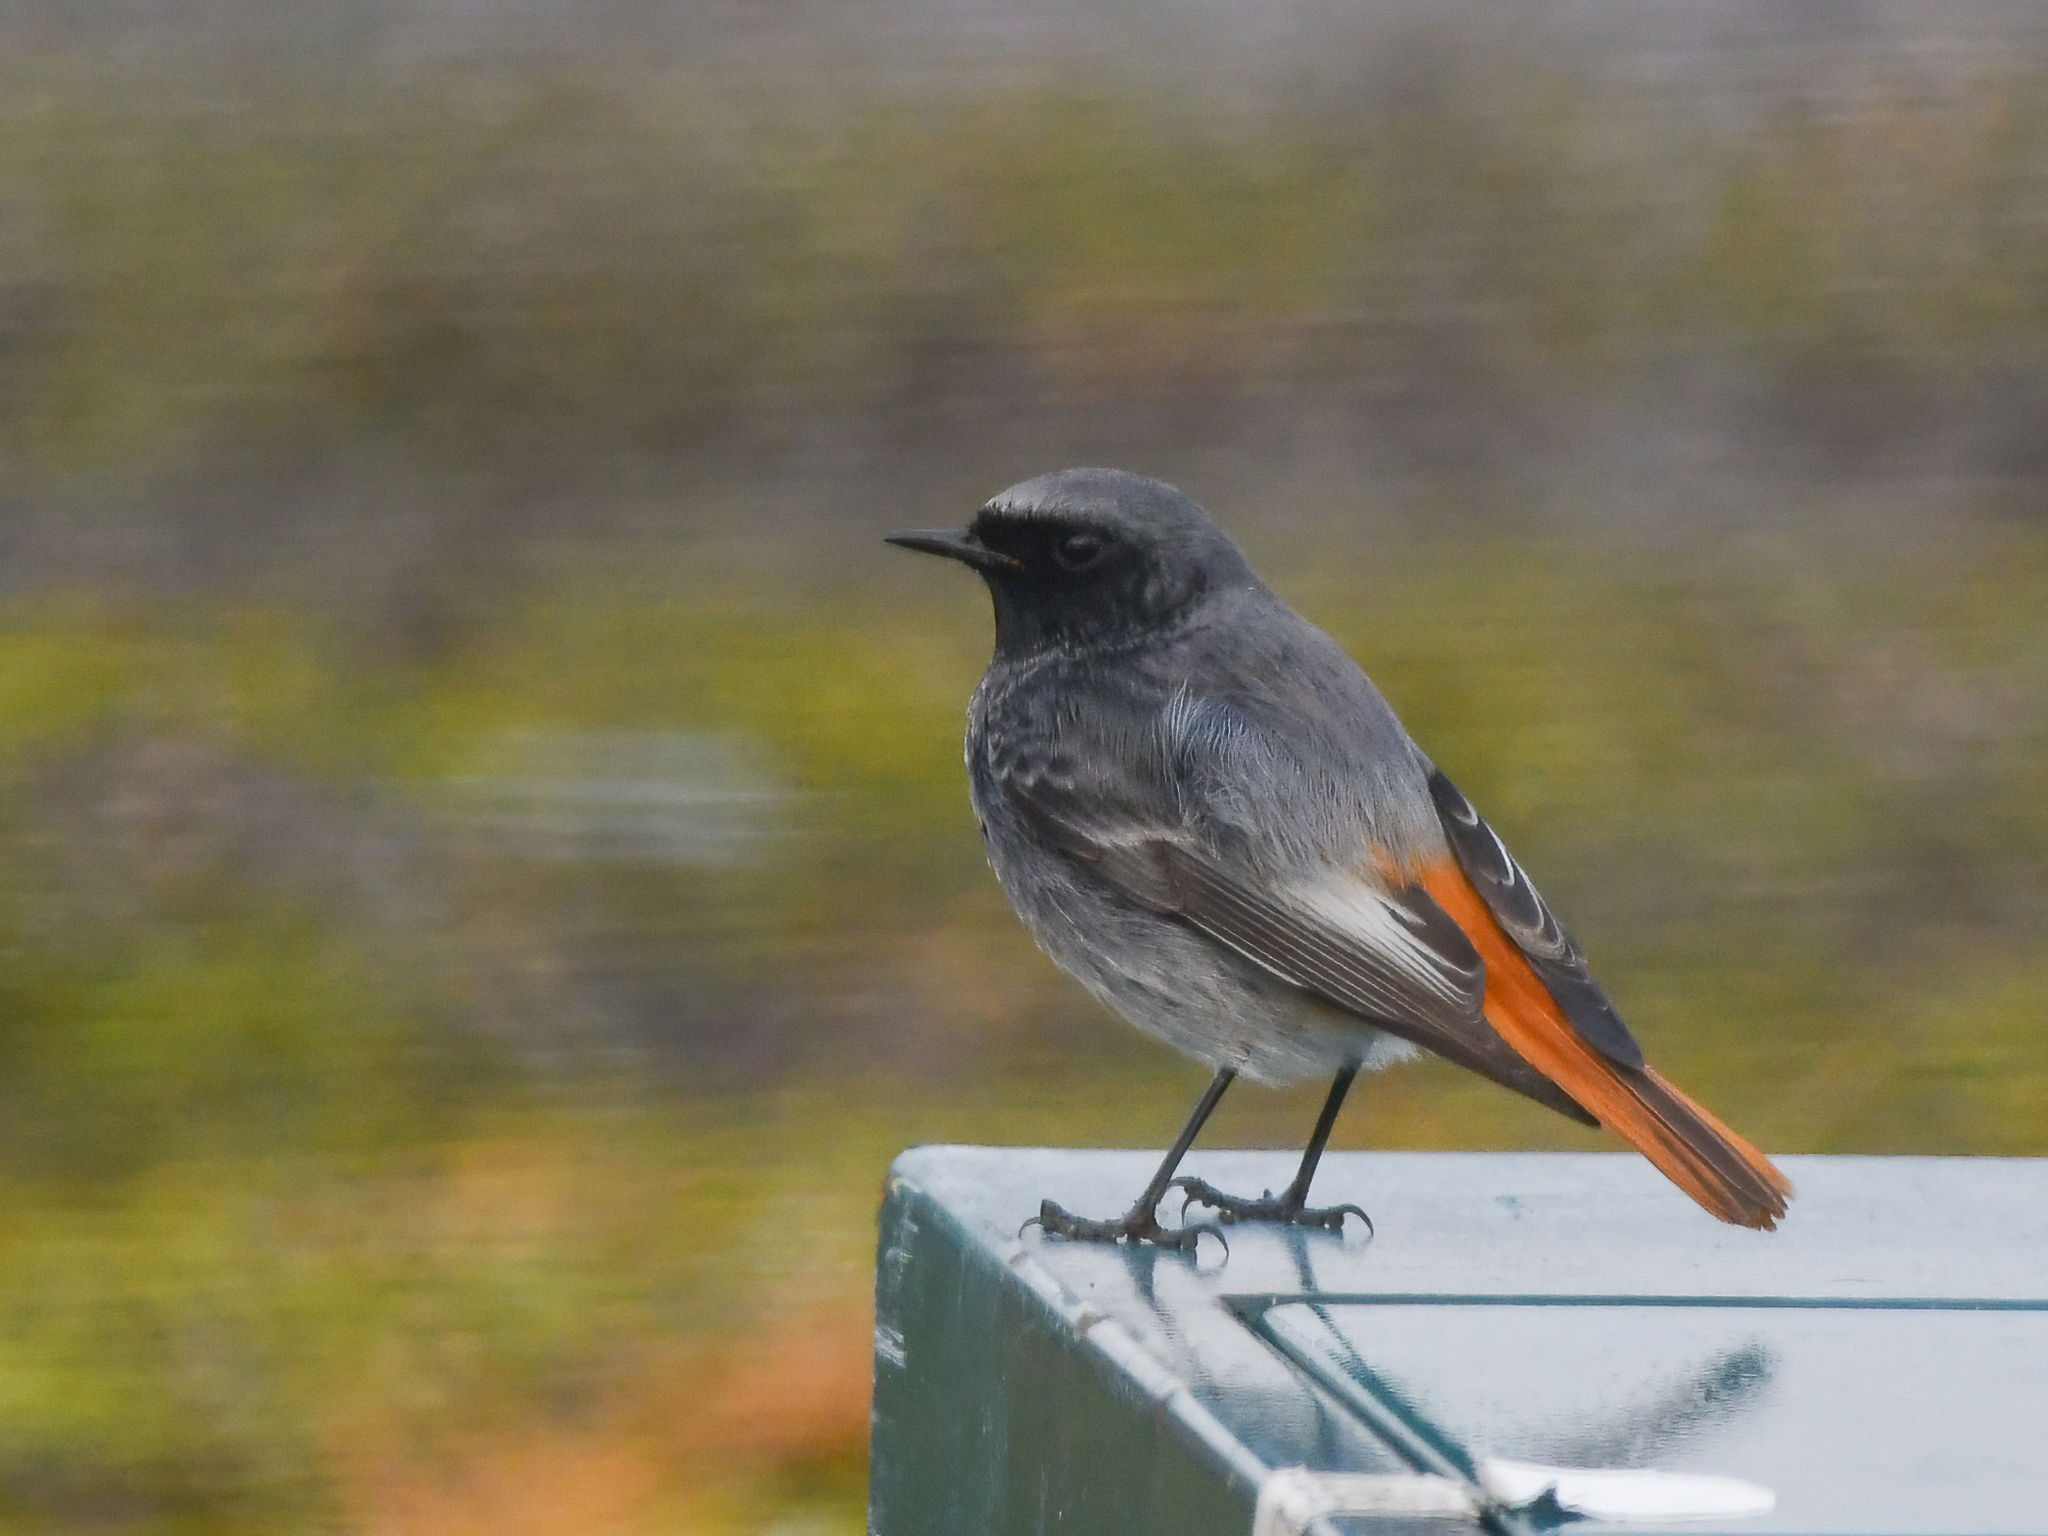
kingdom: Animalia
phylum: Chordata
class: Aves
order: Passeriformes
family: Muscicapidae
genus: Phoenicurus
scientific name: Phoenicurus ochruros
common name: Black redstart
